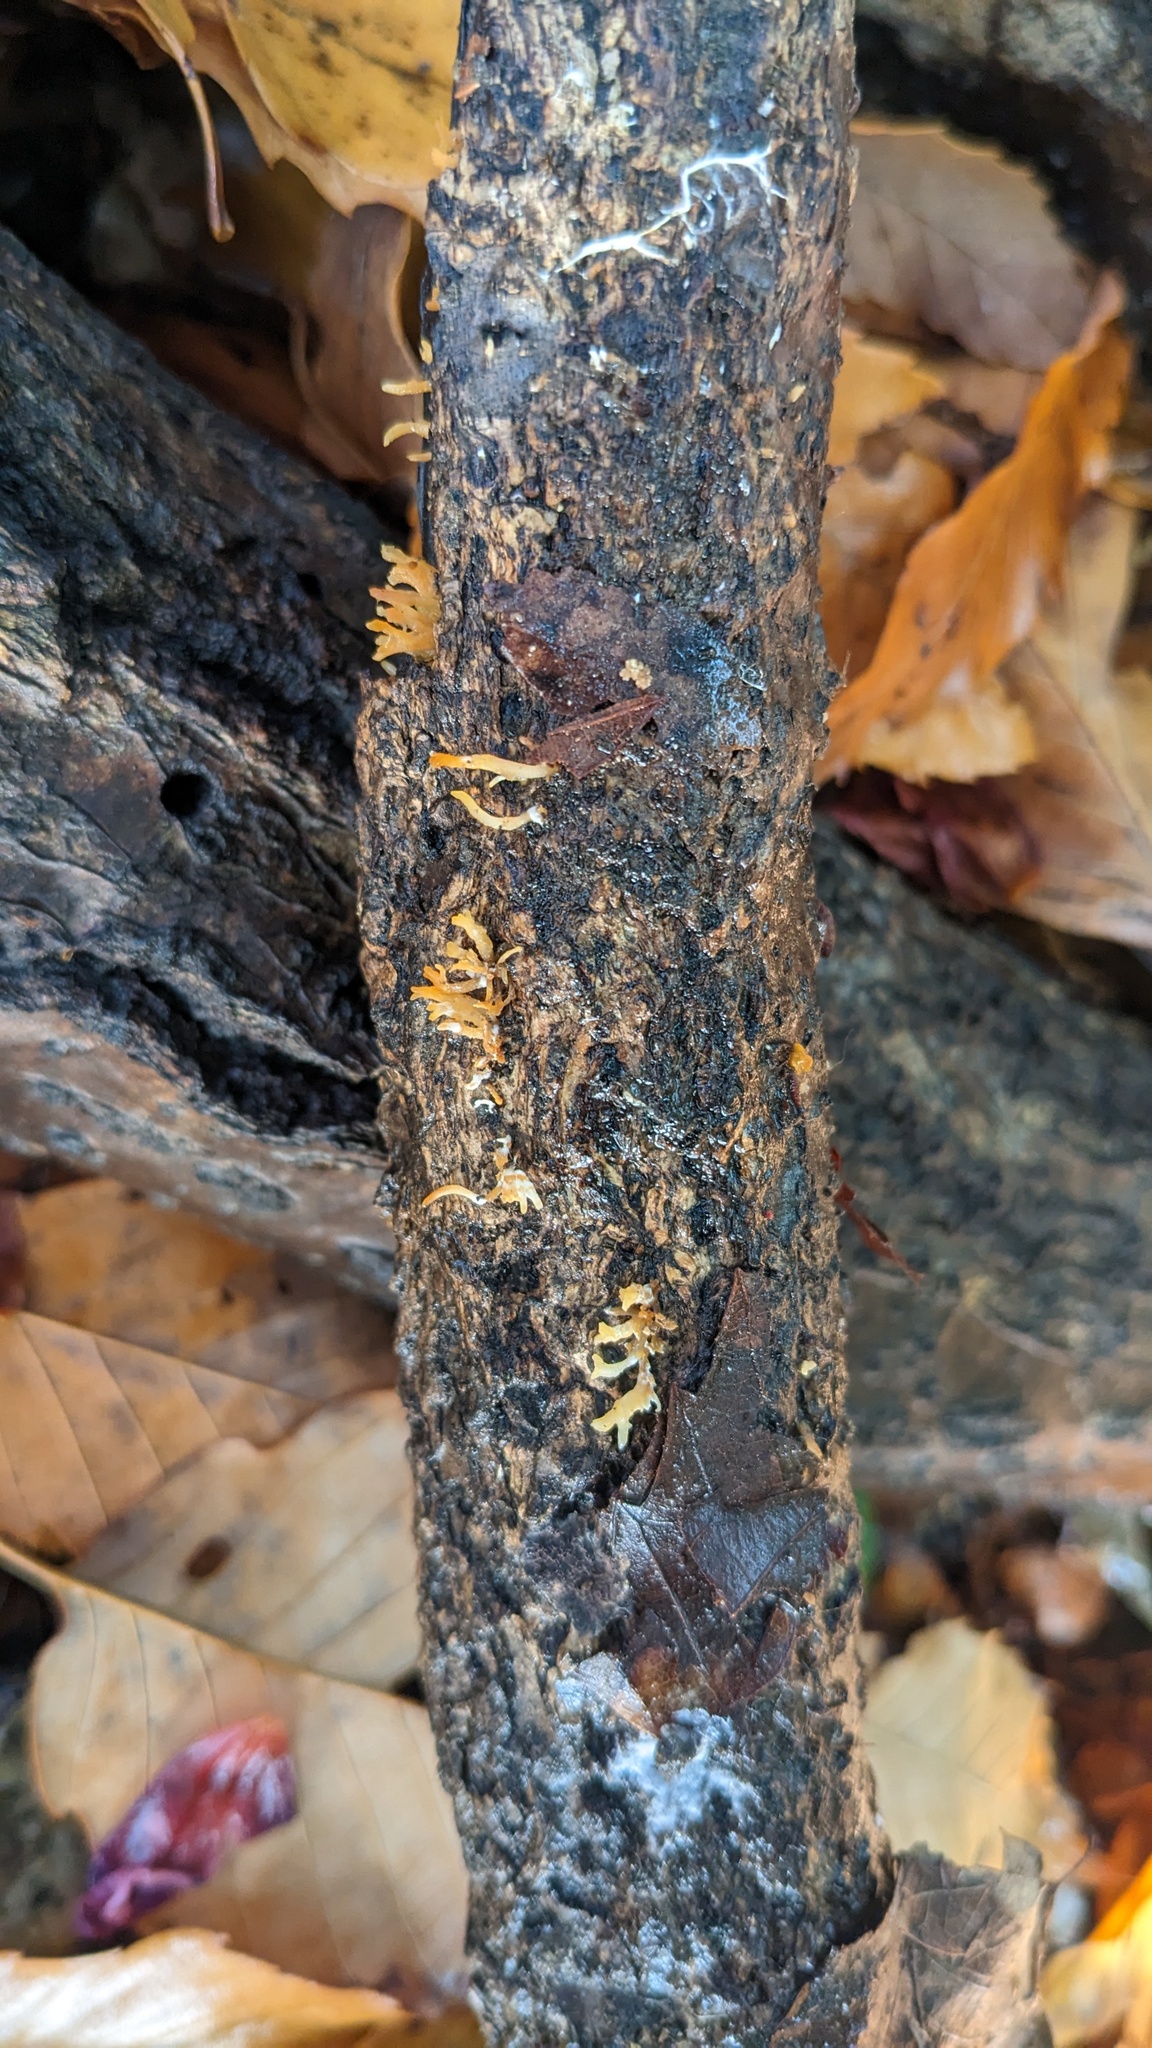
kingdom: Fungi
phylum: Basidiomycota
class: Dacrymycetes
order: Dacrymycetales
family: Dacrymycetaceae
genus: Calocera
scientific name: Calocera cornea
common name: Small stagshorn
